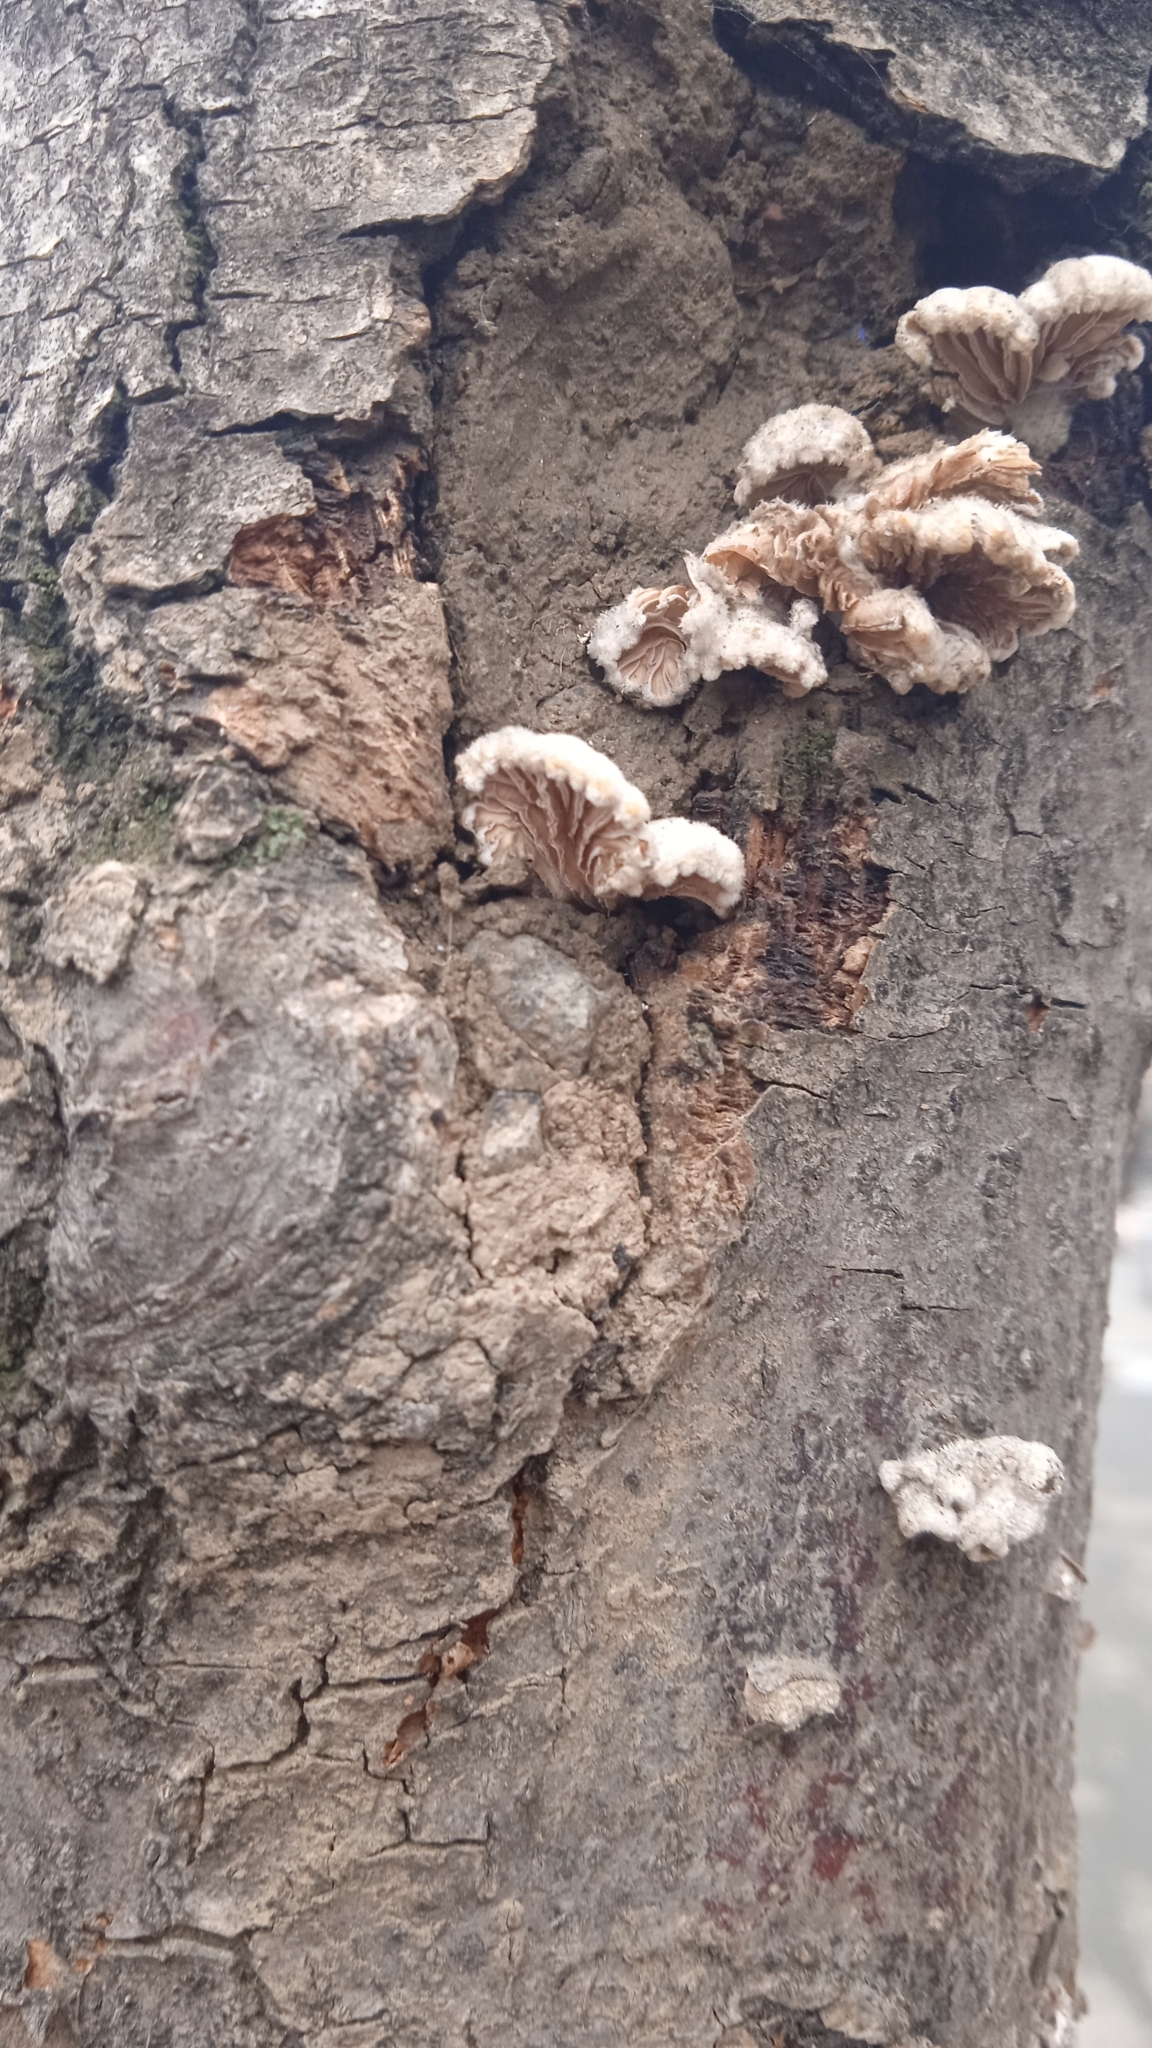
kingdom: Fungi
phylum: Basidiomycota
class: Agaricomycetes
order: Agaricales
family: Schizophyllaceae
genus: Schizophyllum
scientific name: Schizophyllum commune
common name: Common porecrust
